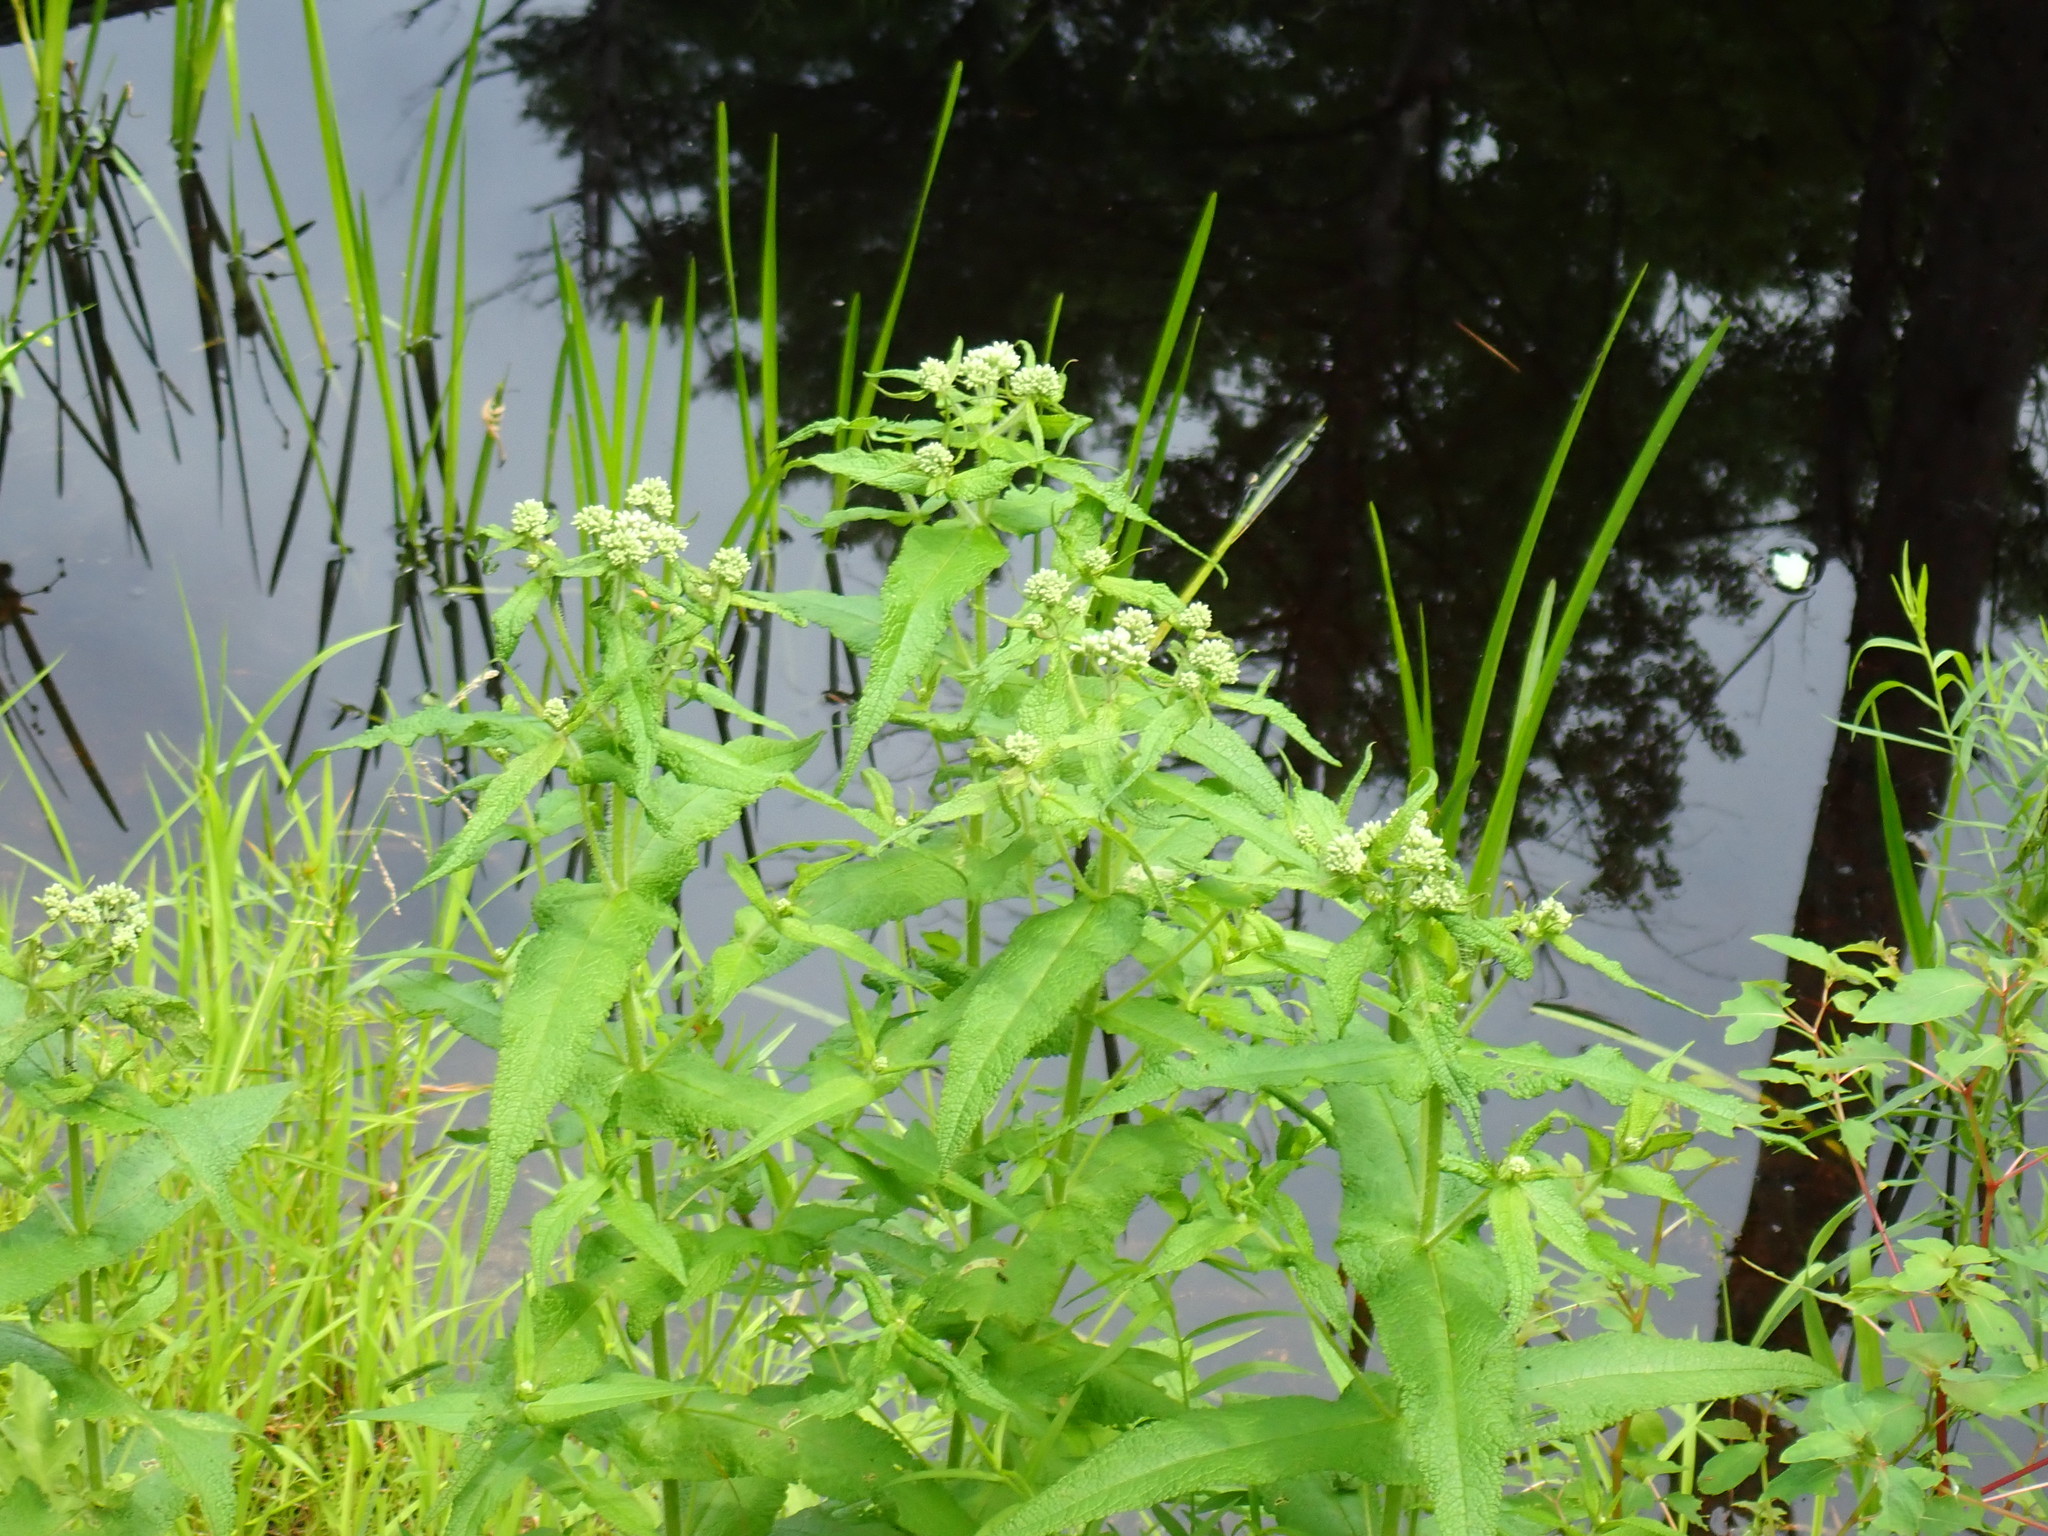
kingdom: Plantae
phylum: Tracheophyta
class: Magnoliopsida
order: Asterales
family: Asteraceae
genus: Eupatorium
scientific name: Eupatorium perfoliatum
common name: Boneset
